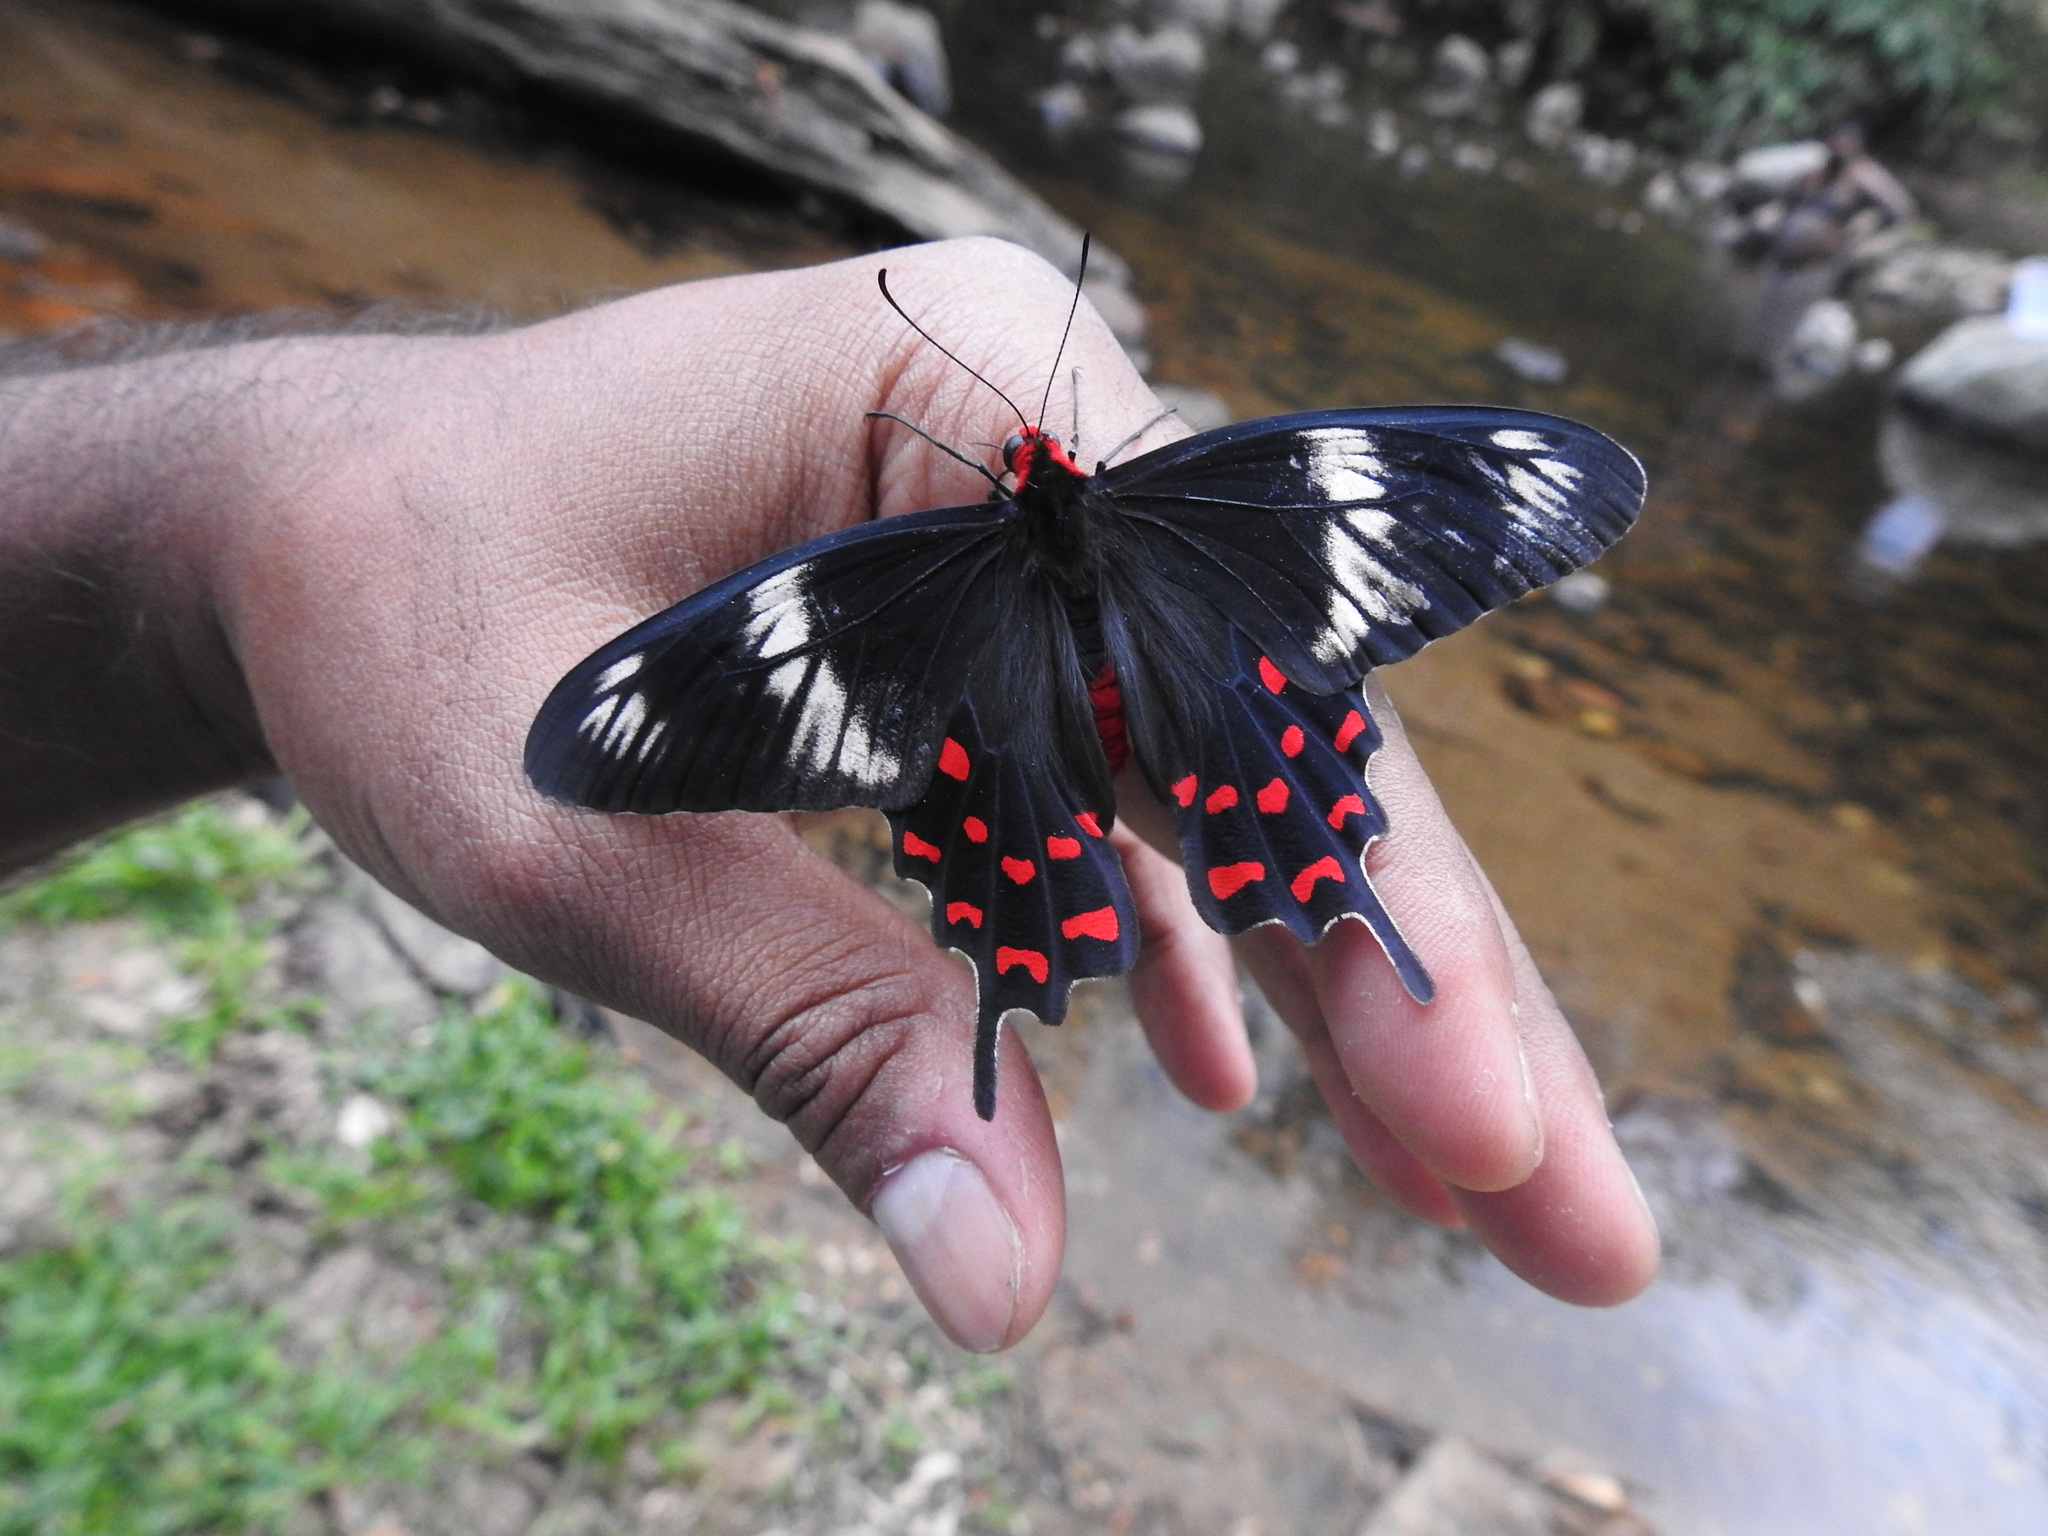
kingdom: Animalia
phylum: Arthropoda
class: Insecta
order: Lepidoptera
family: Papilionidae
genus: Pachliopta
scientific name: Pachliopta hector
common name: Crimson rose
